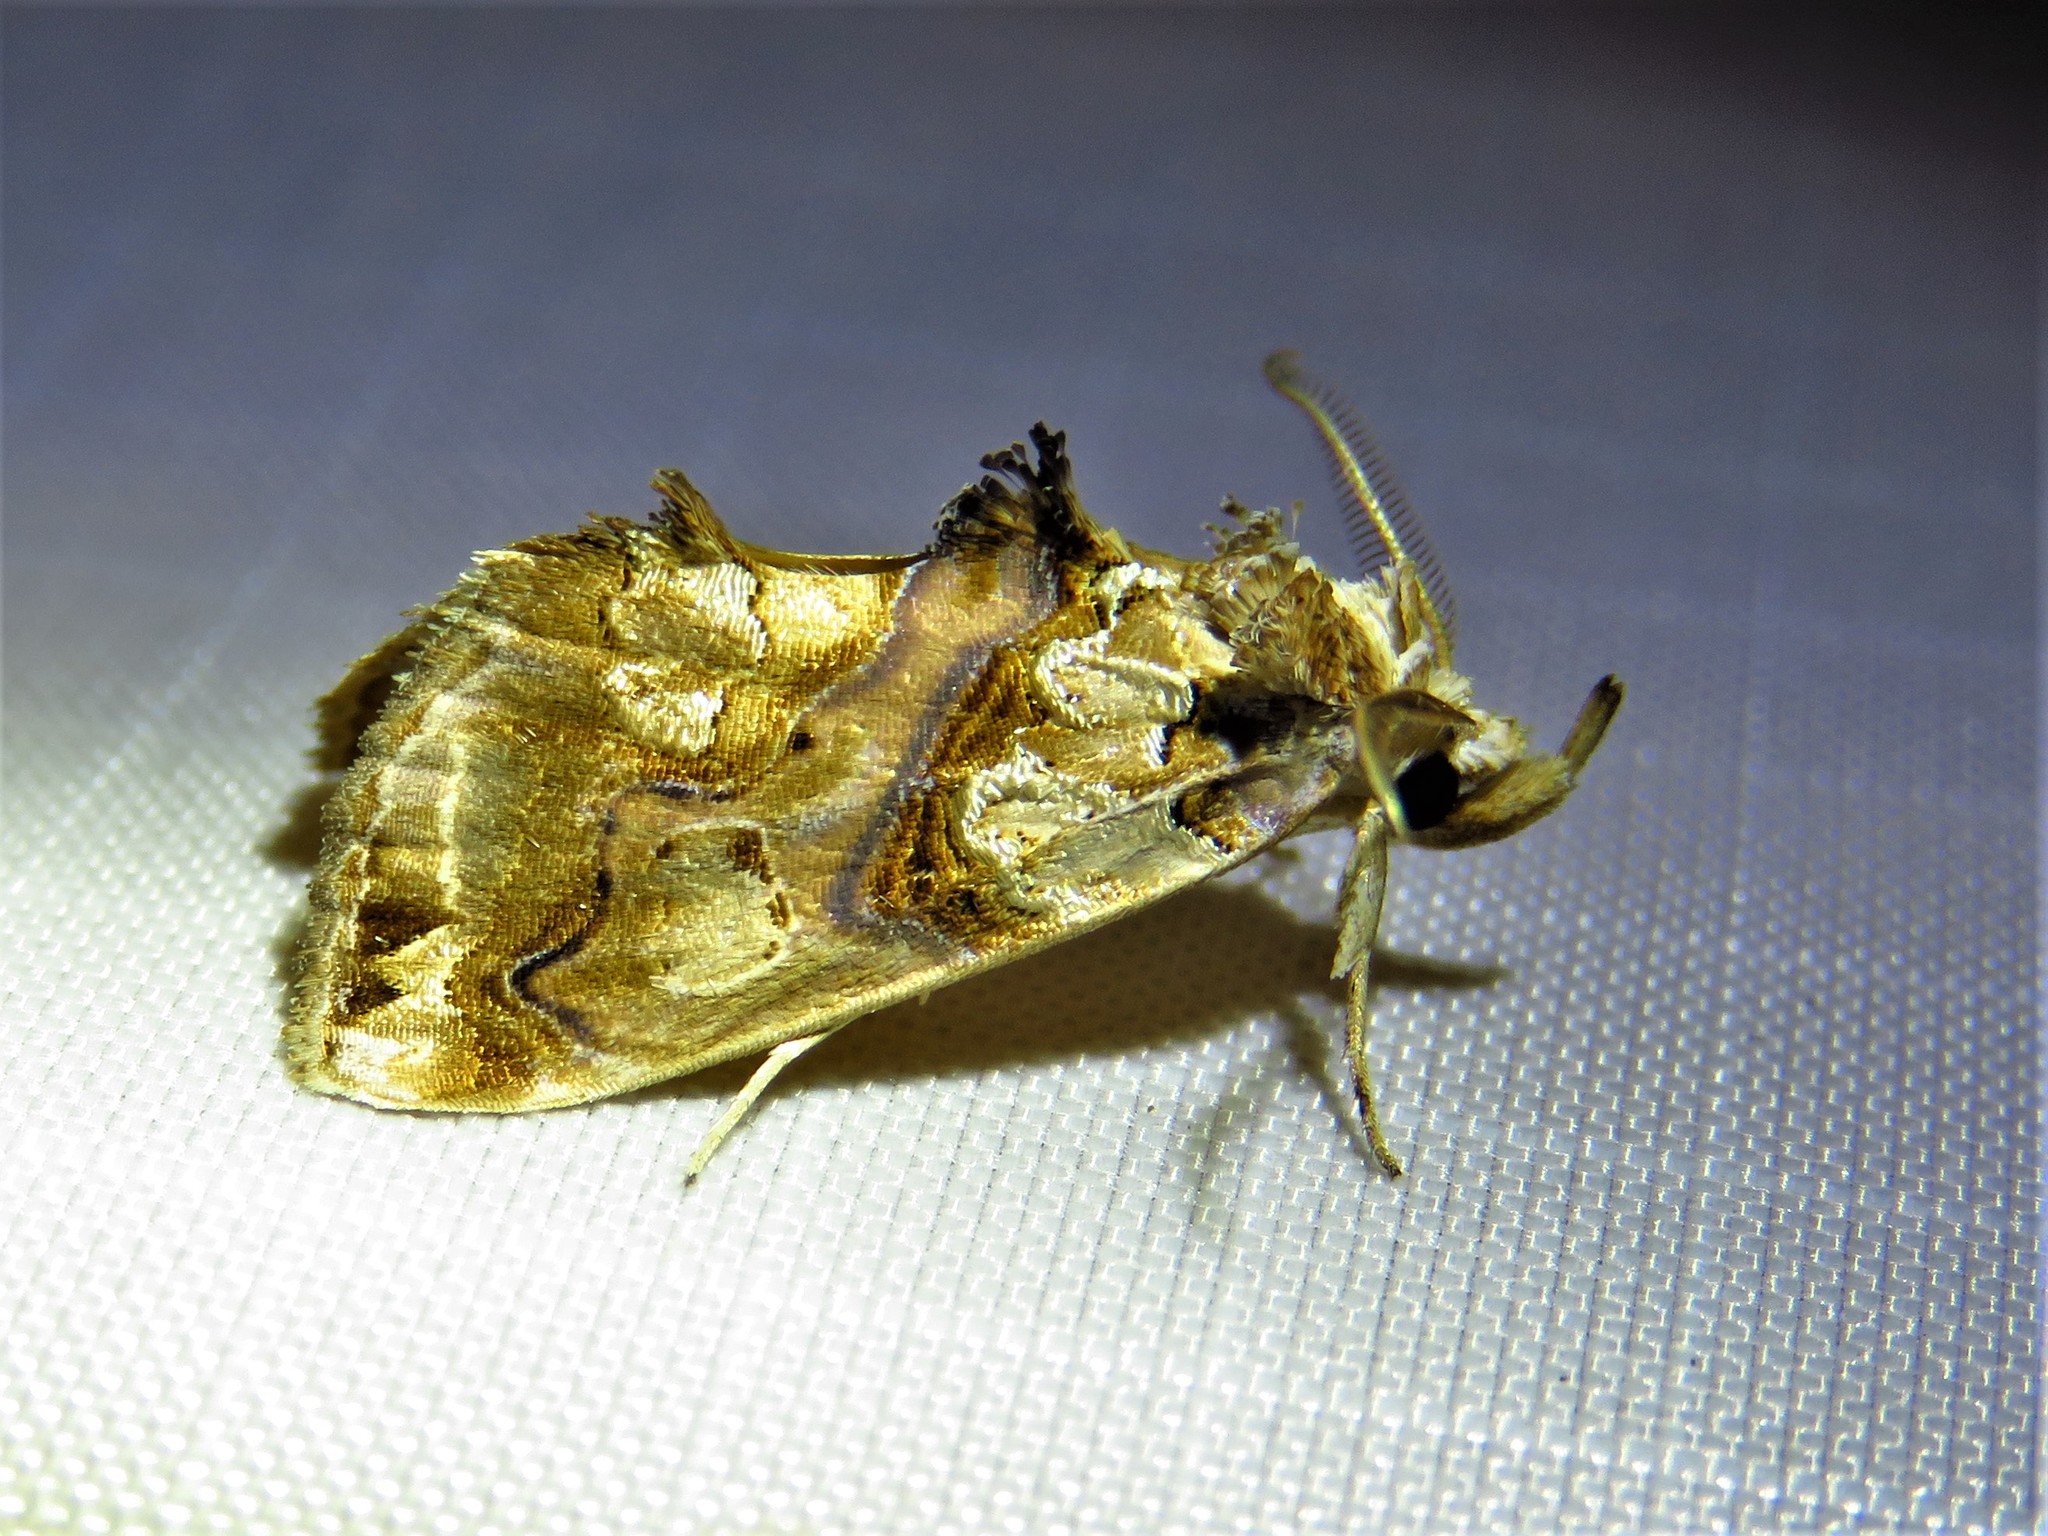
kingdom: Animalia
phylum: Arthropoda
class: Insecta
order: Lepidoptera
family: Erebidae
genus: Plusiodonta
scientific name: Plusiodonta compressipalpis
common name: Moonseed moth
